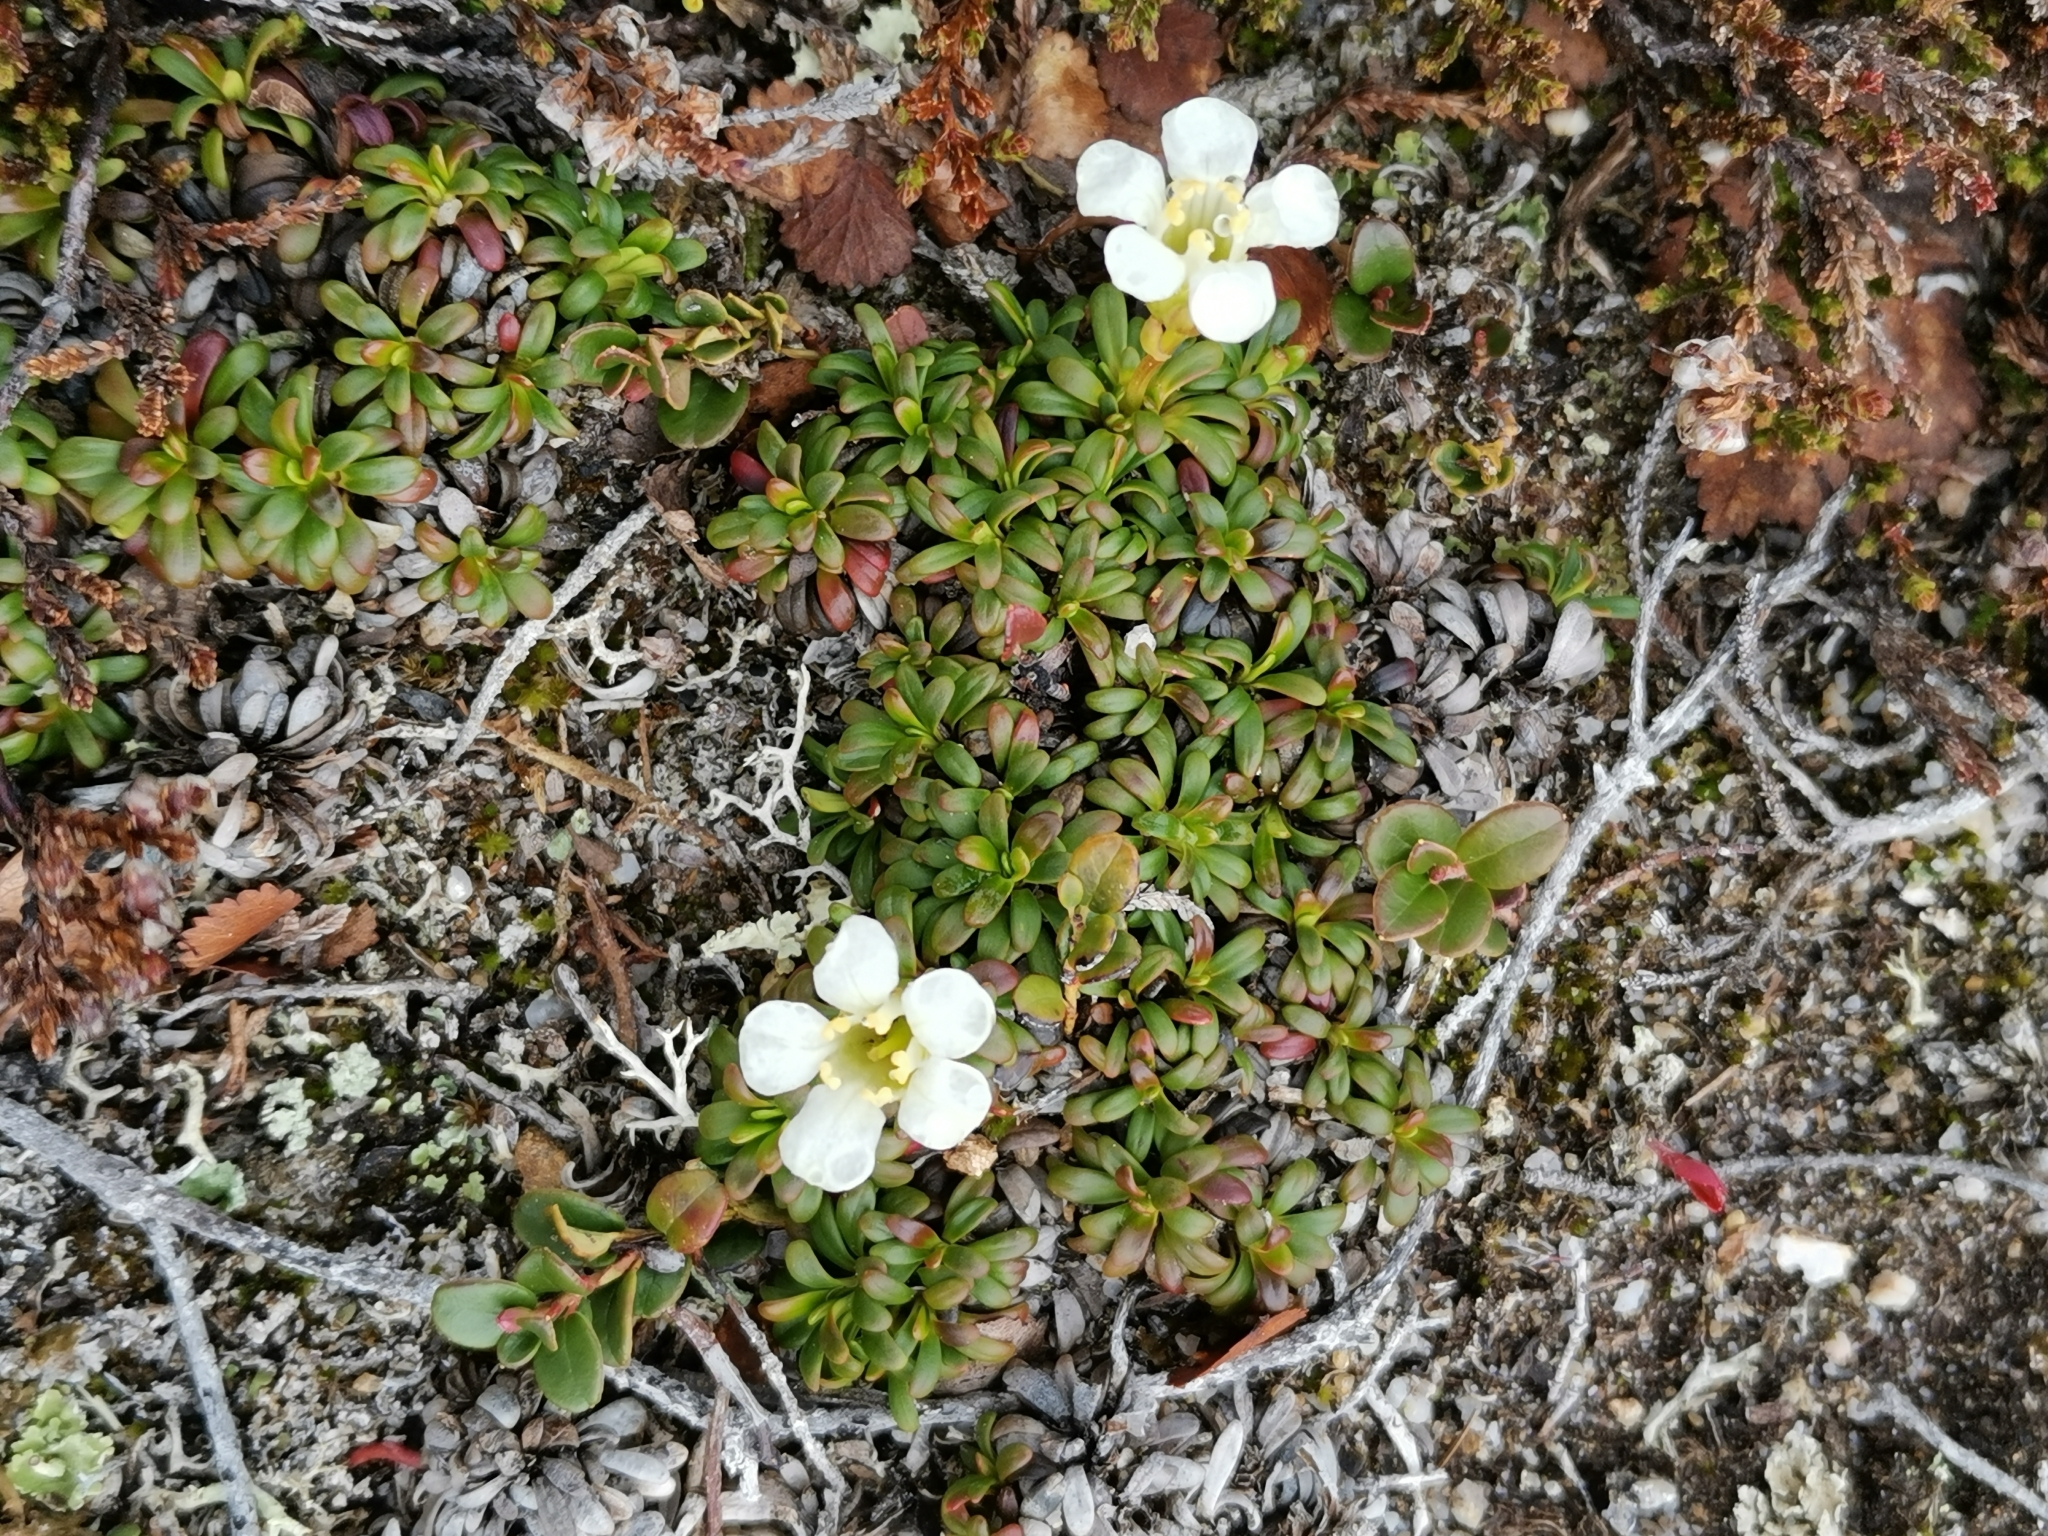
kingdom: Plantae
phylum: Tracheophyta
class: Magnoliopsida
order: Ericales
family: Diapensiaceae
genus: Diapensia
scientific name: Diapensia lapponica
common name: Diapensia
